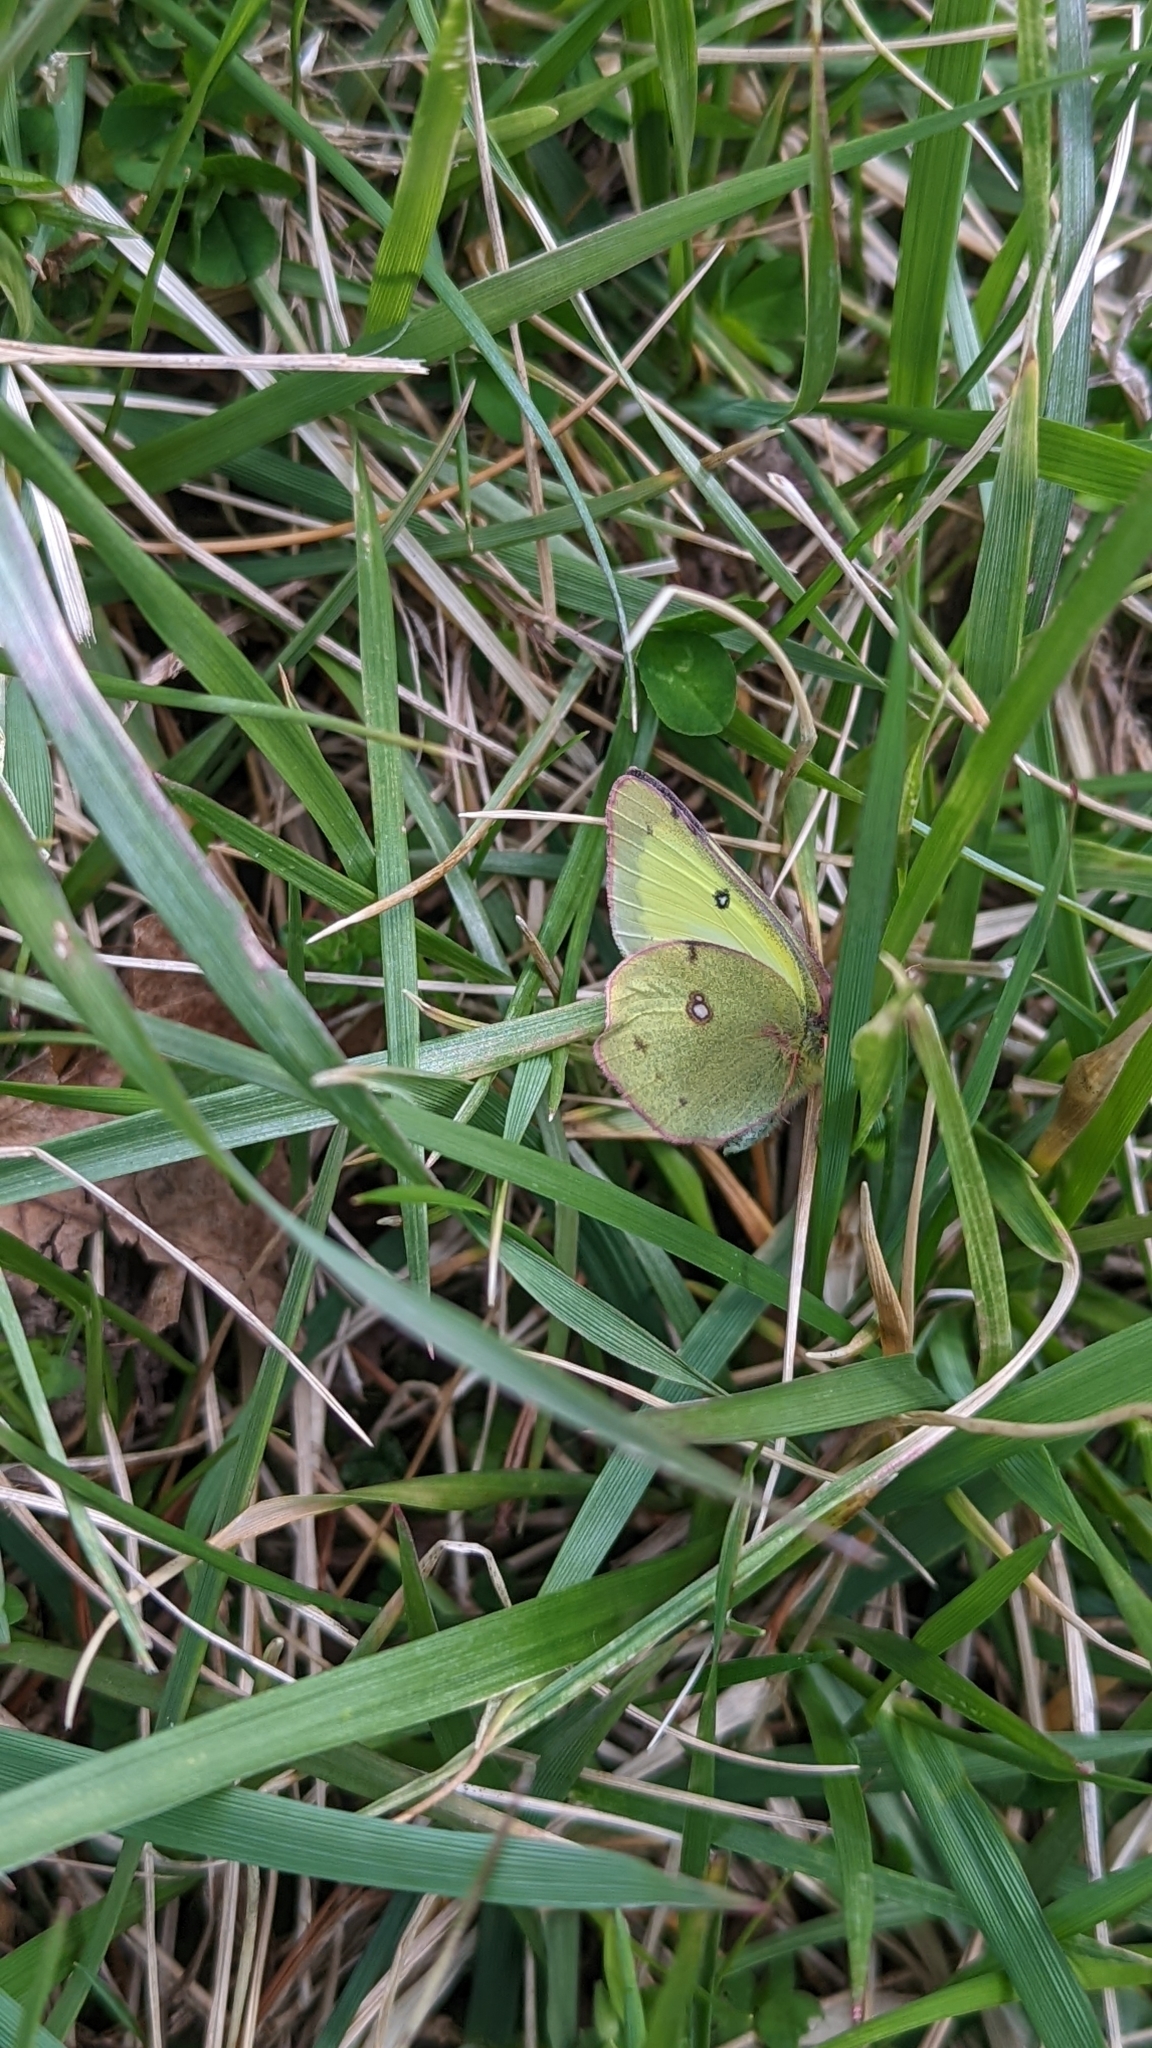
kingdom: Animalia
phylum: Arthropoda
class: Insecta
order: Lepidoptera
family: Pieridae
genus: Colias
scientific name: Colias philodice
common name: Clouded sulphur
